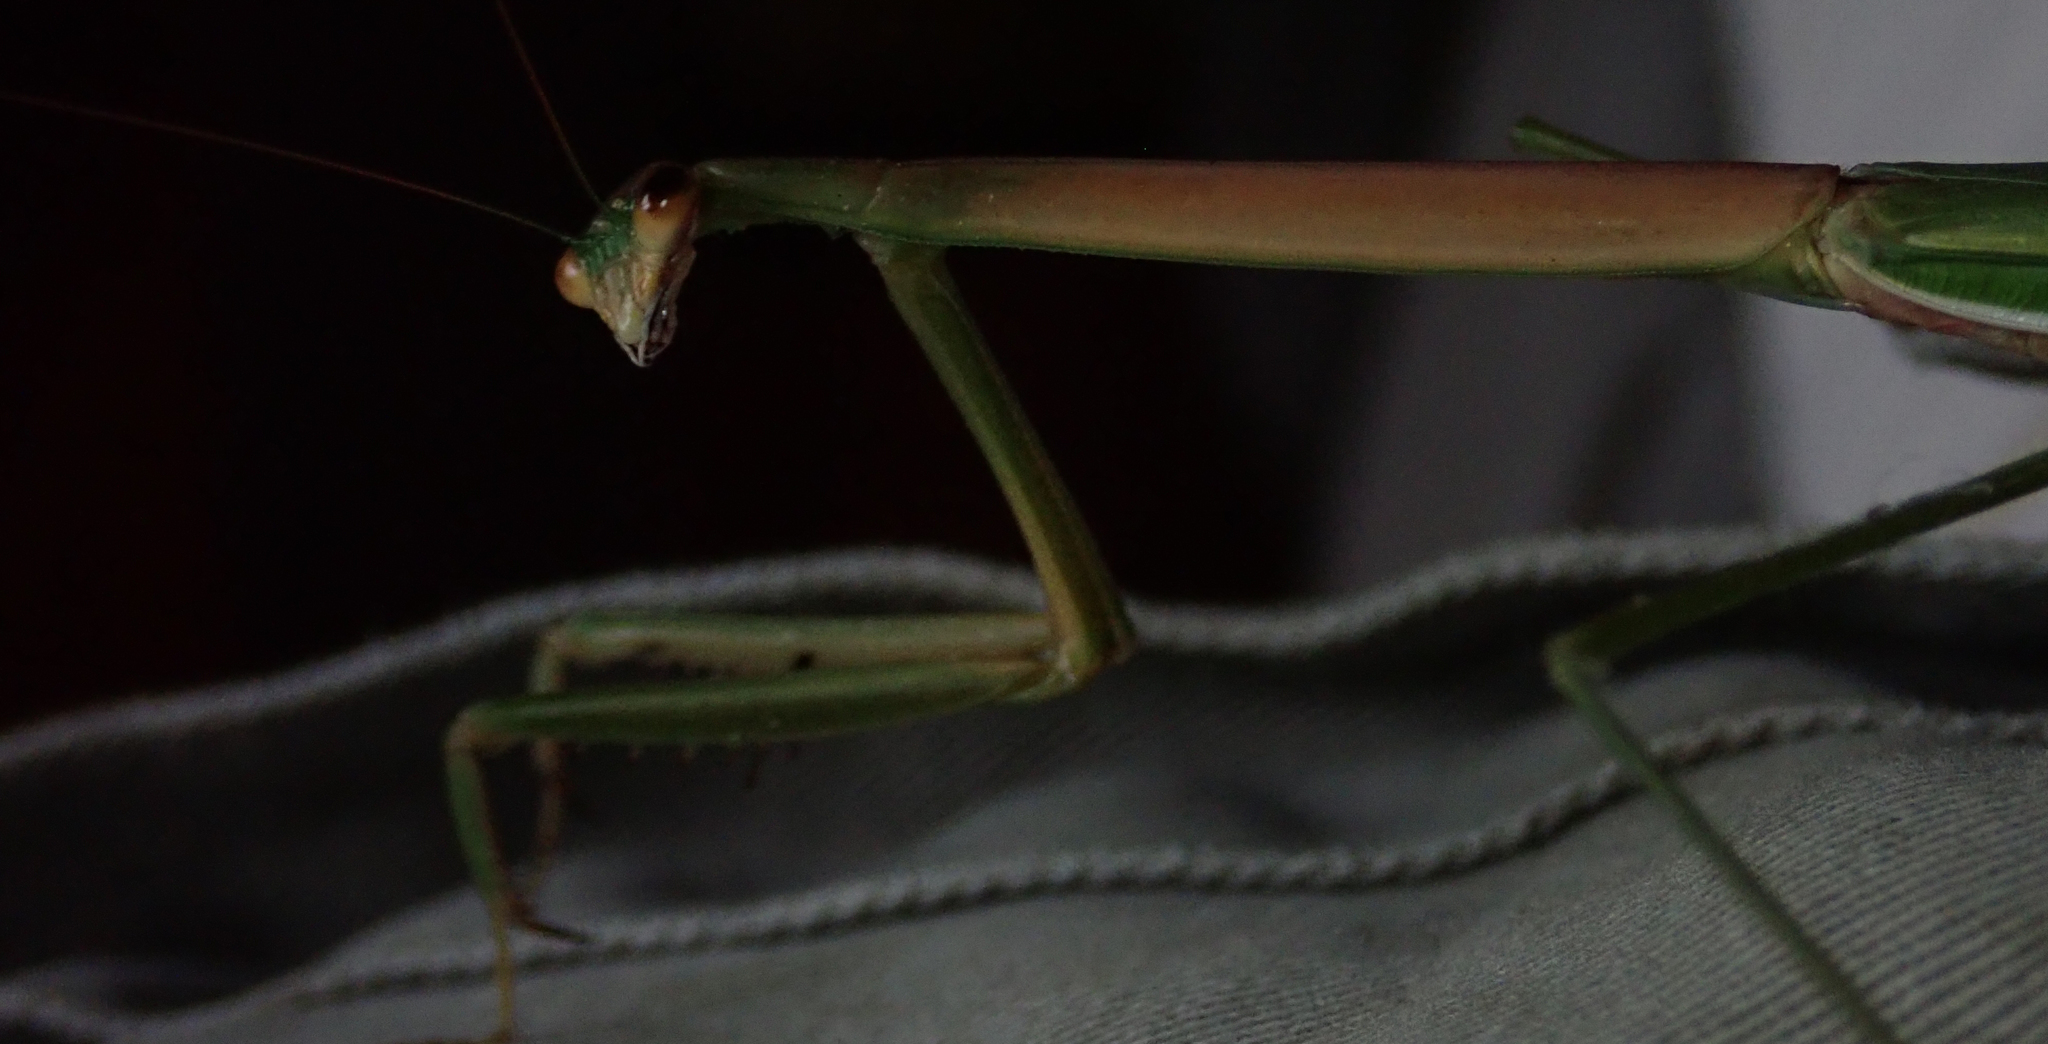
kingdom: Animalia
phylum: Arthropoda
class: Insecta
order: Mantodea
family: Mantidae
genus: Tenodera
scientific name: Tenodera superstitiosa
